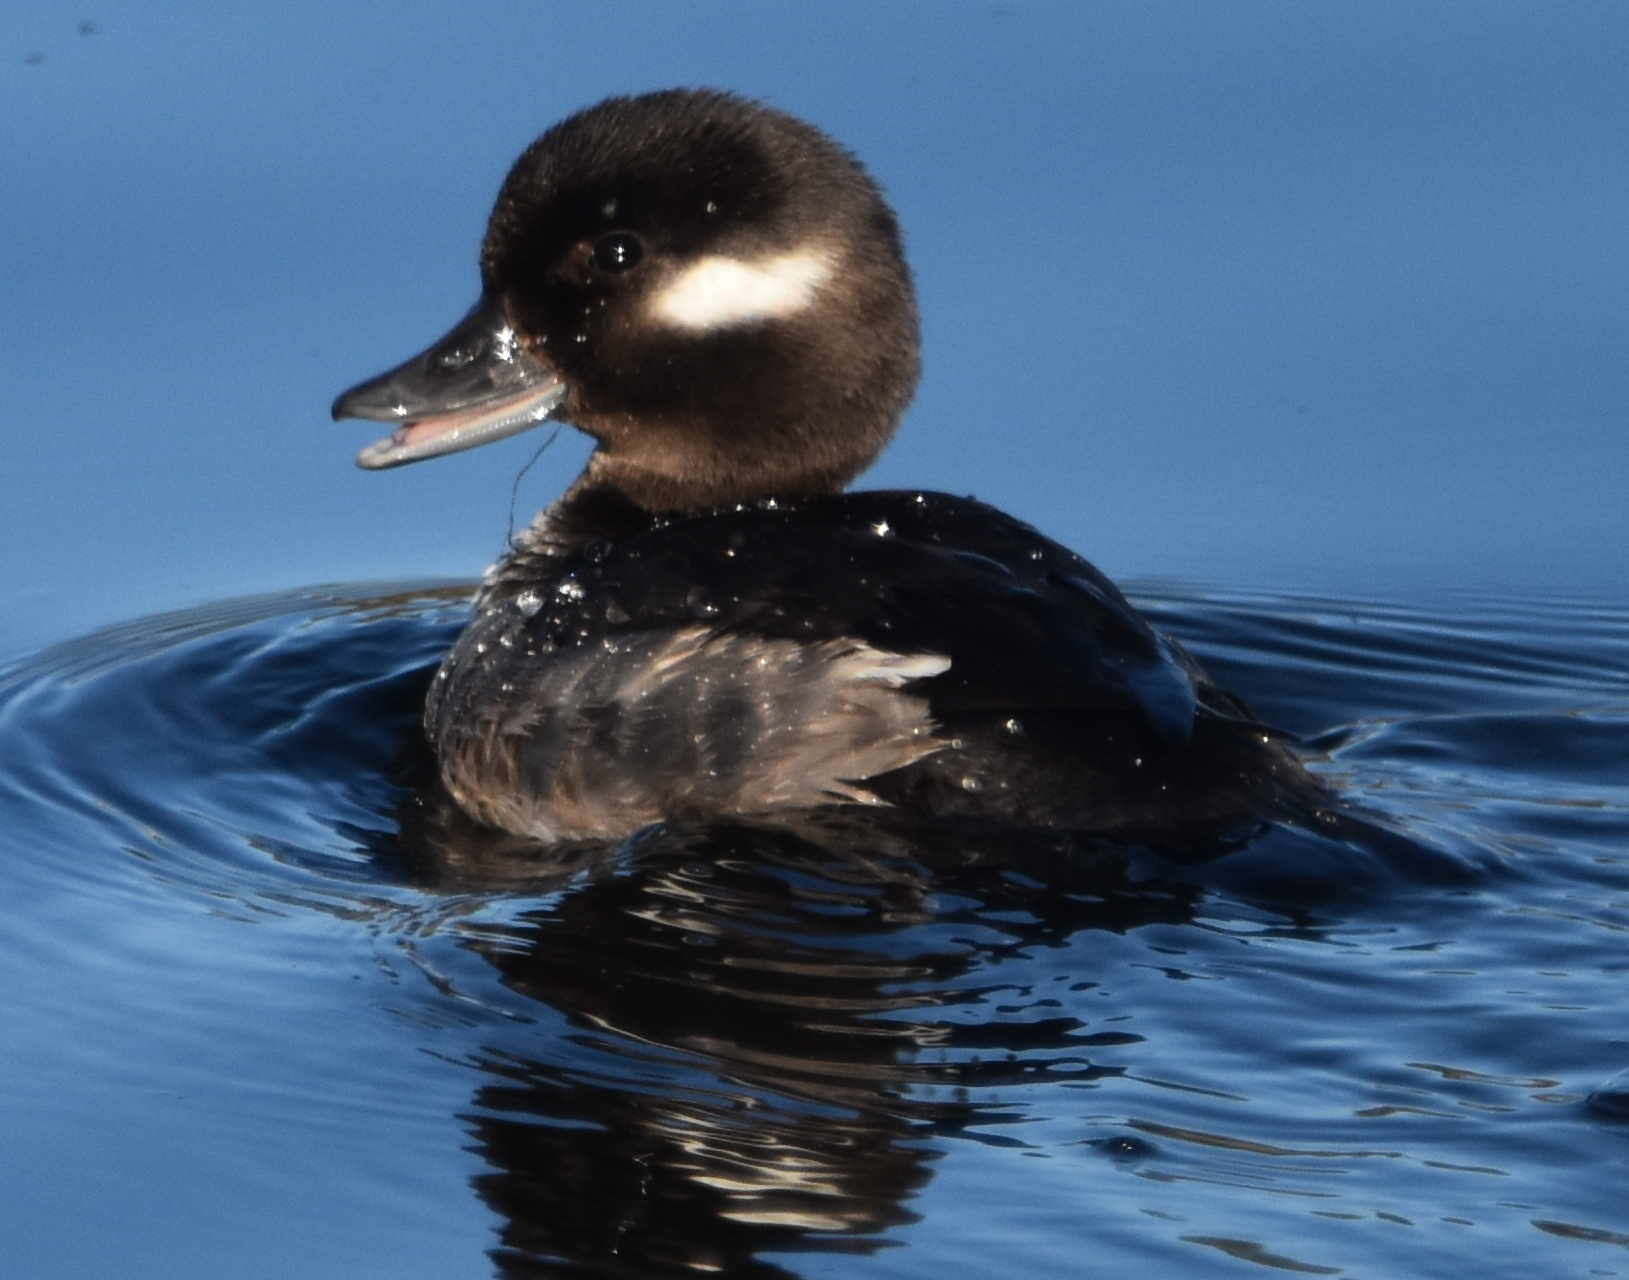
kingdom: Animalia
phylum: Chordata
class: Aves
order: Anseriformes
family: Anatidae
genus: Bucephala
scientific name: Bucephala albeola
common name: Bufflehead
